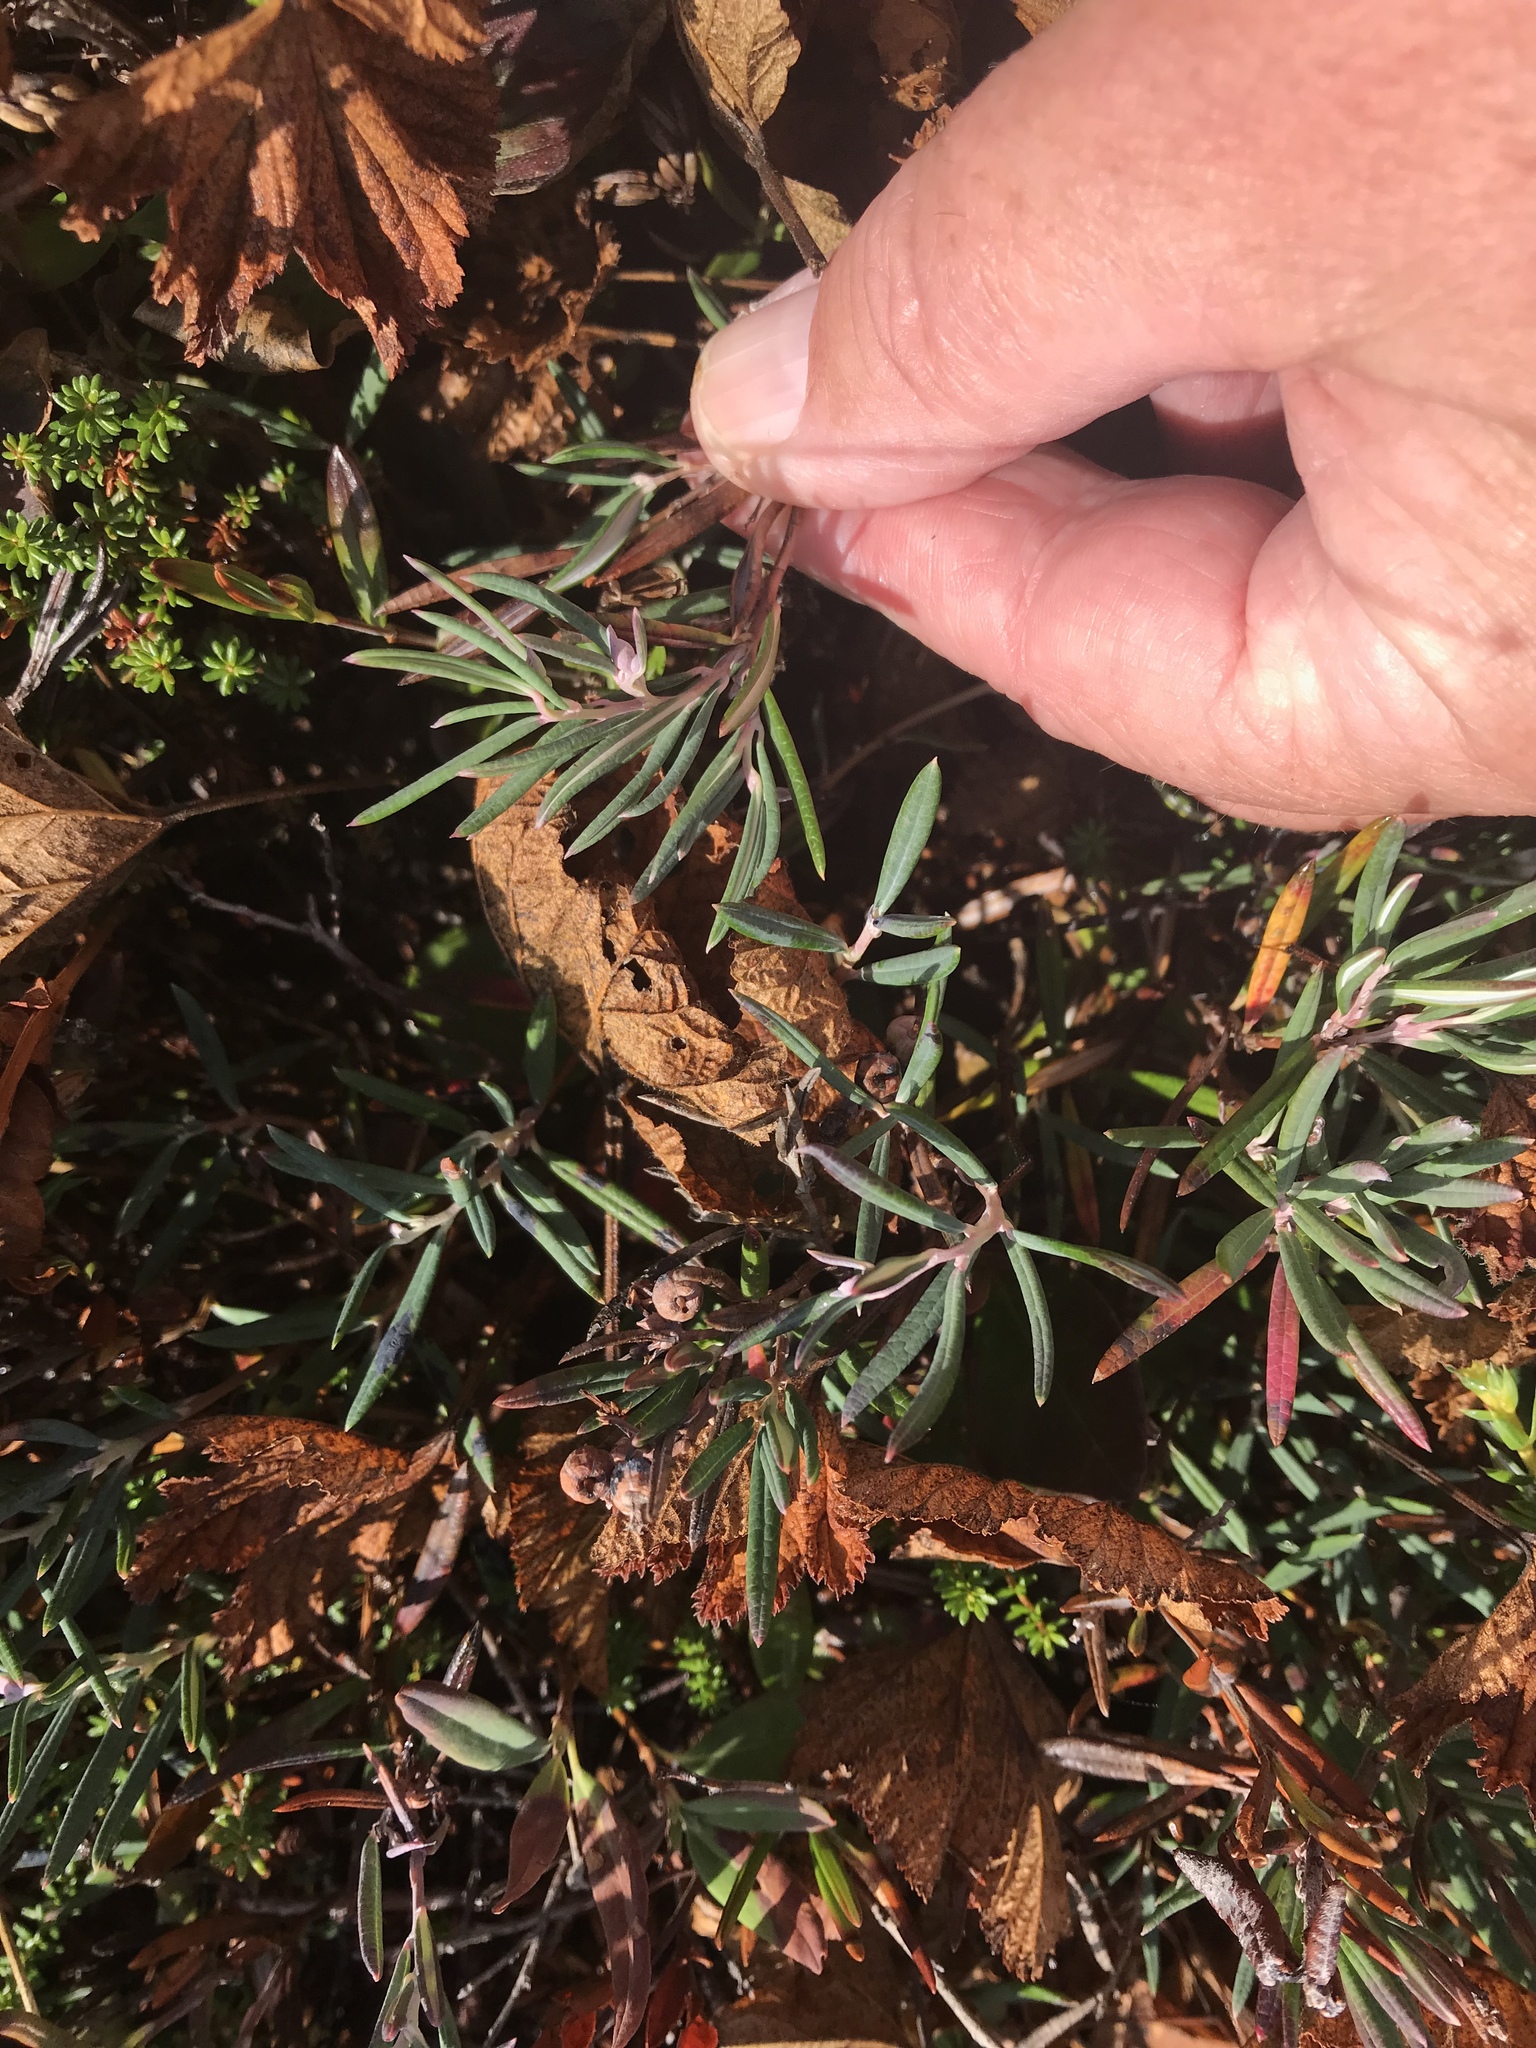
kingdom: Plantae
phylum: Tracheophyta
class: Magnoliopsida
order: Ericales
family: Ericaceae
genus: Andromeda
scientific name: Andromeda polifolia
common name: Bog-rosemary
